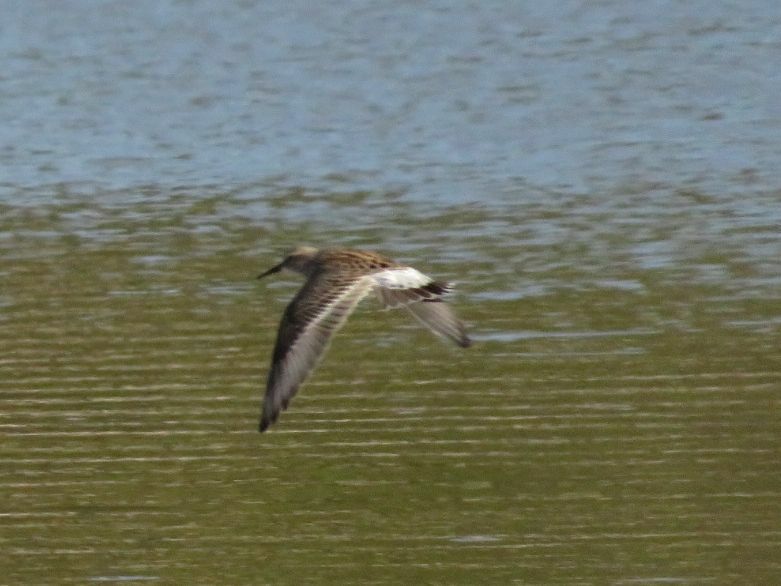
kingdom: Animalia
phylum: Chordata
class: Aves
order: Charadriiformes
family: Scolopacidae
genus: Calidris
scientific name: Calidris fuscicollis
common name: White-rumped sandpiper
